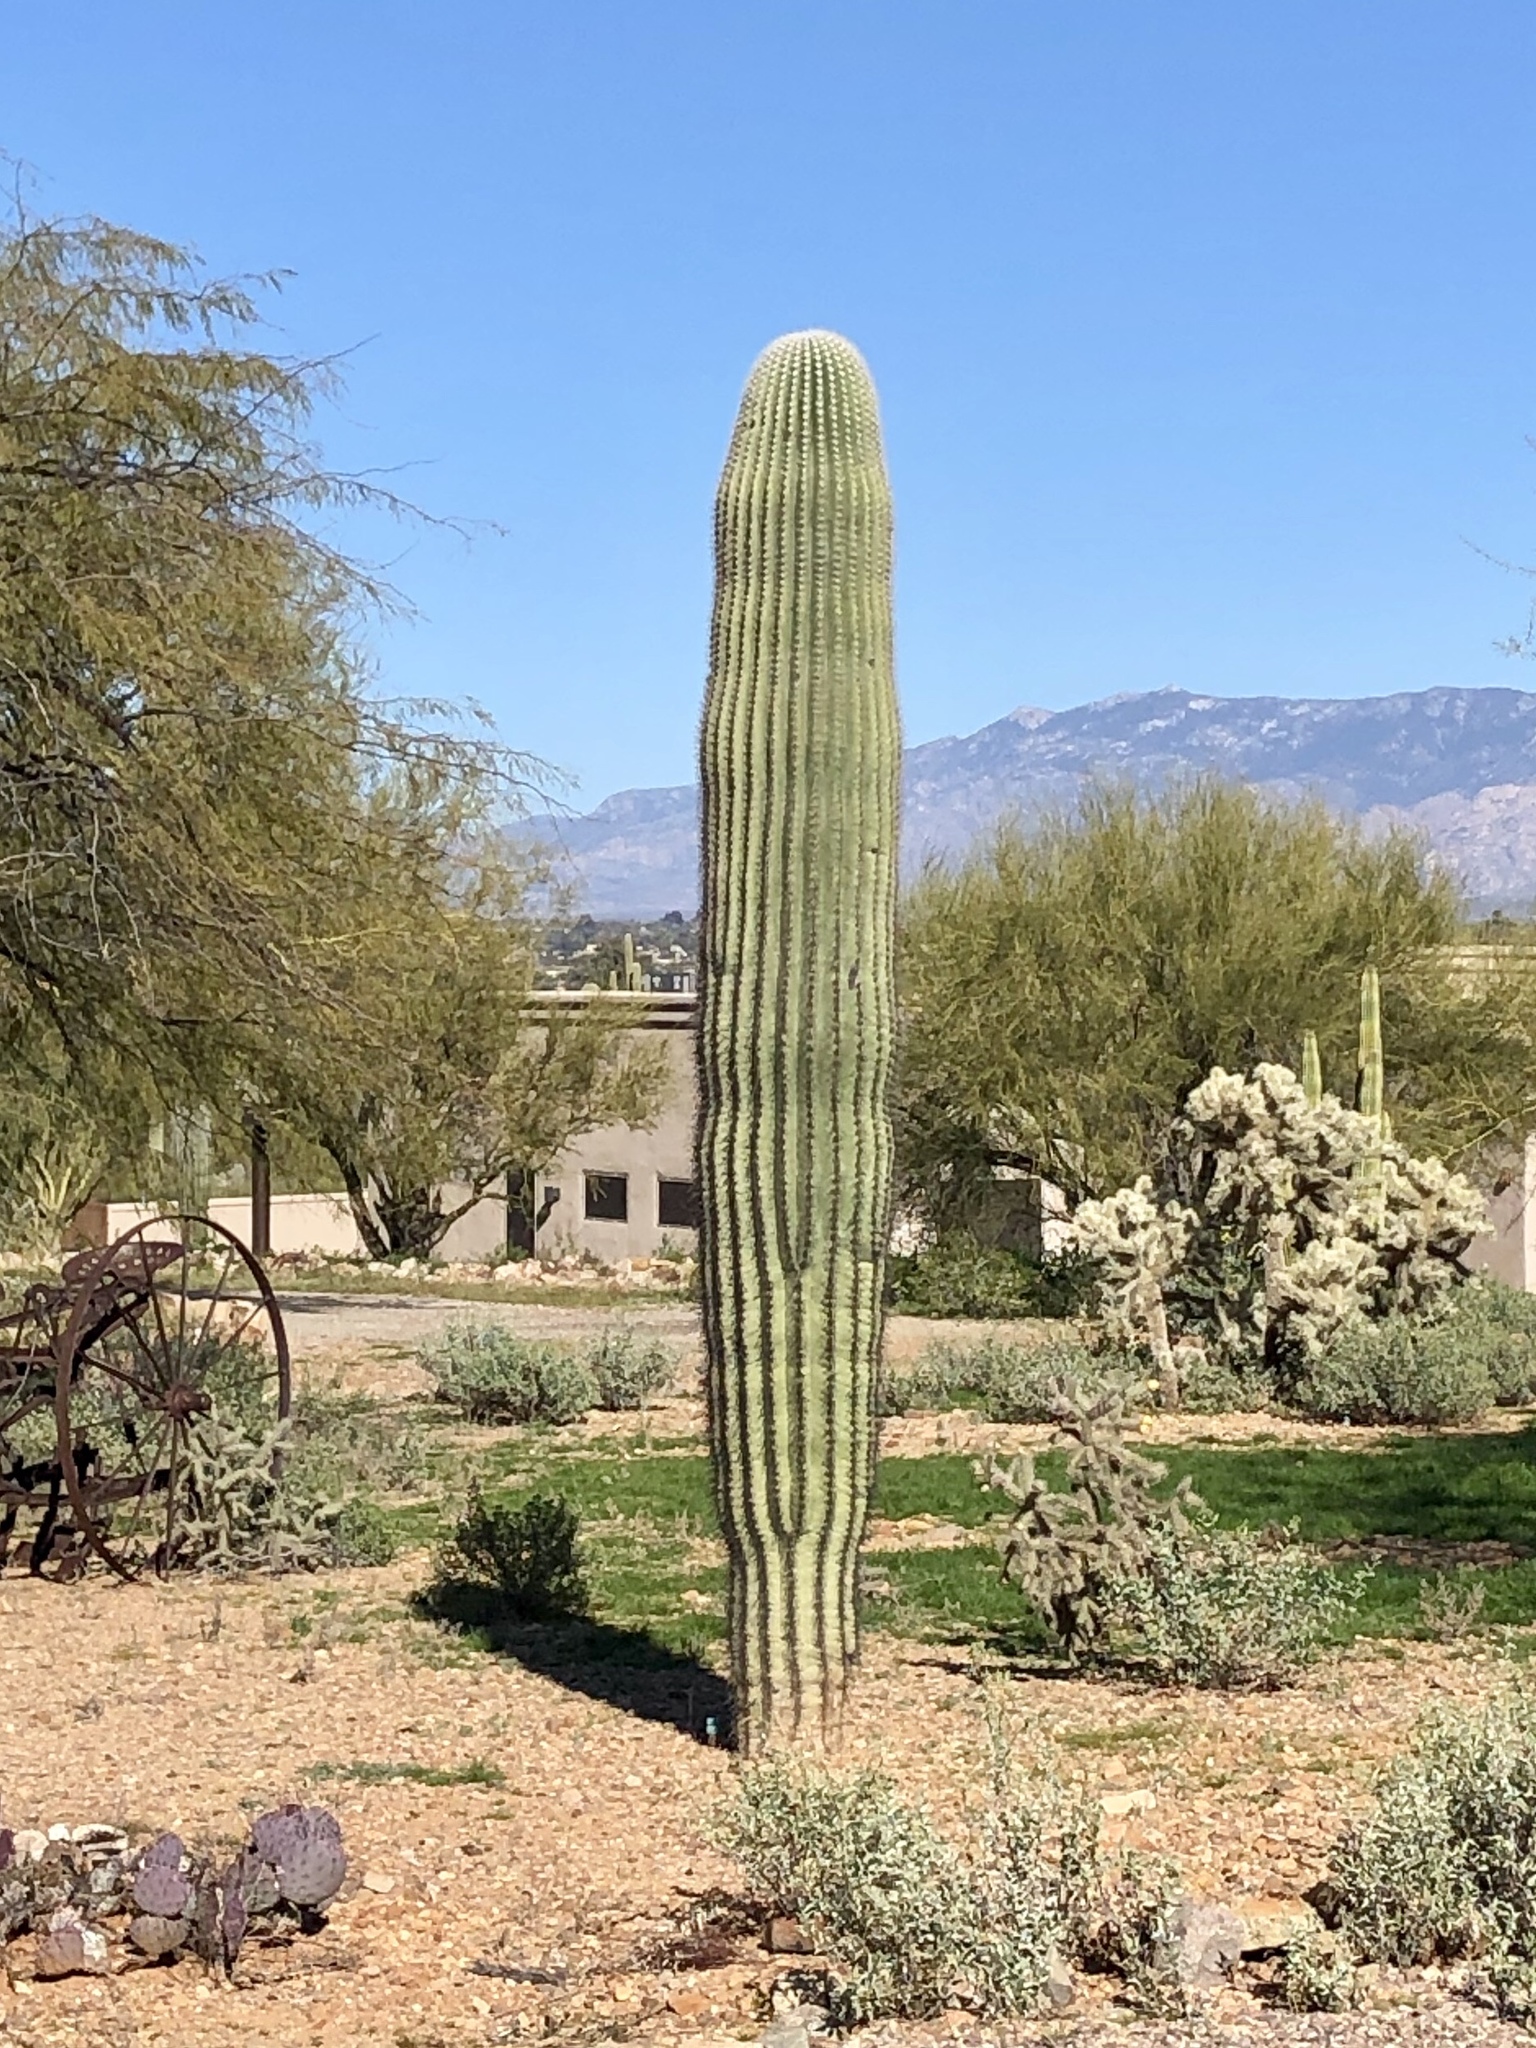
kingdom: Plantae
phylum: Tracheophyta
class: Magnoliopsida
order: Caryophyllales
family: Cactaceae
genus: Carnegiea
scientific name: Carnegiea gigantea
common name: Saguaro
